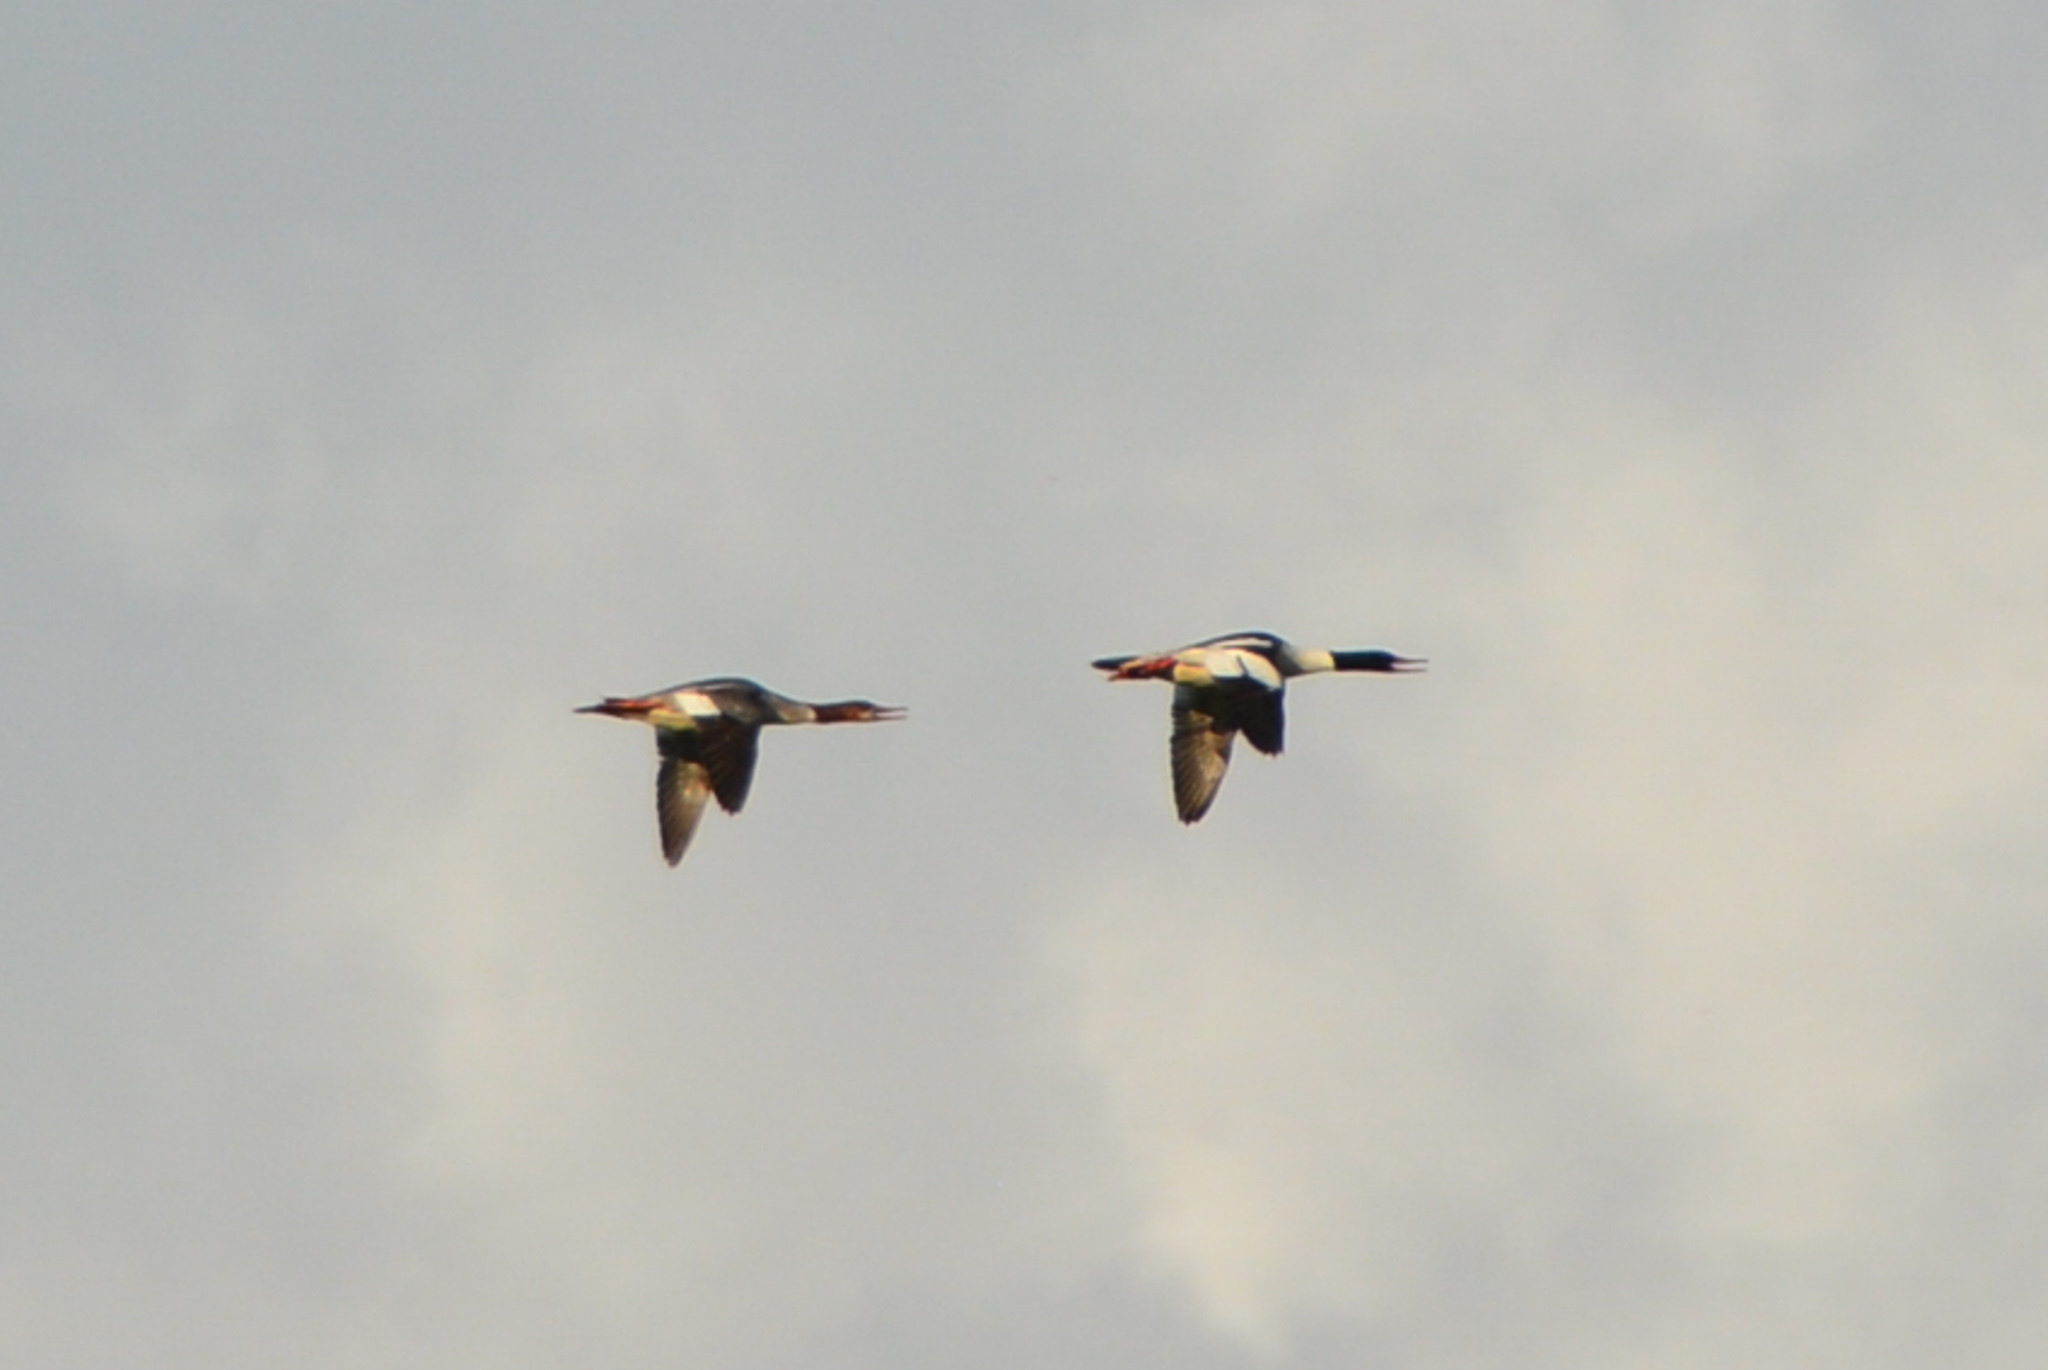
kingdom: Animalia
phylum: Chordata
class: Aves
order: Anseriformes
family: Anatidae
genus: Mergus
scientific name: Mergus merganser
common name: Common merganser
